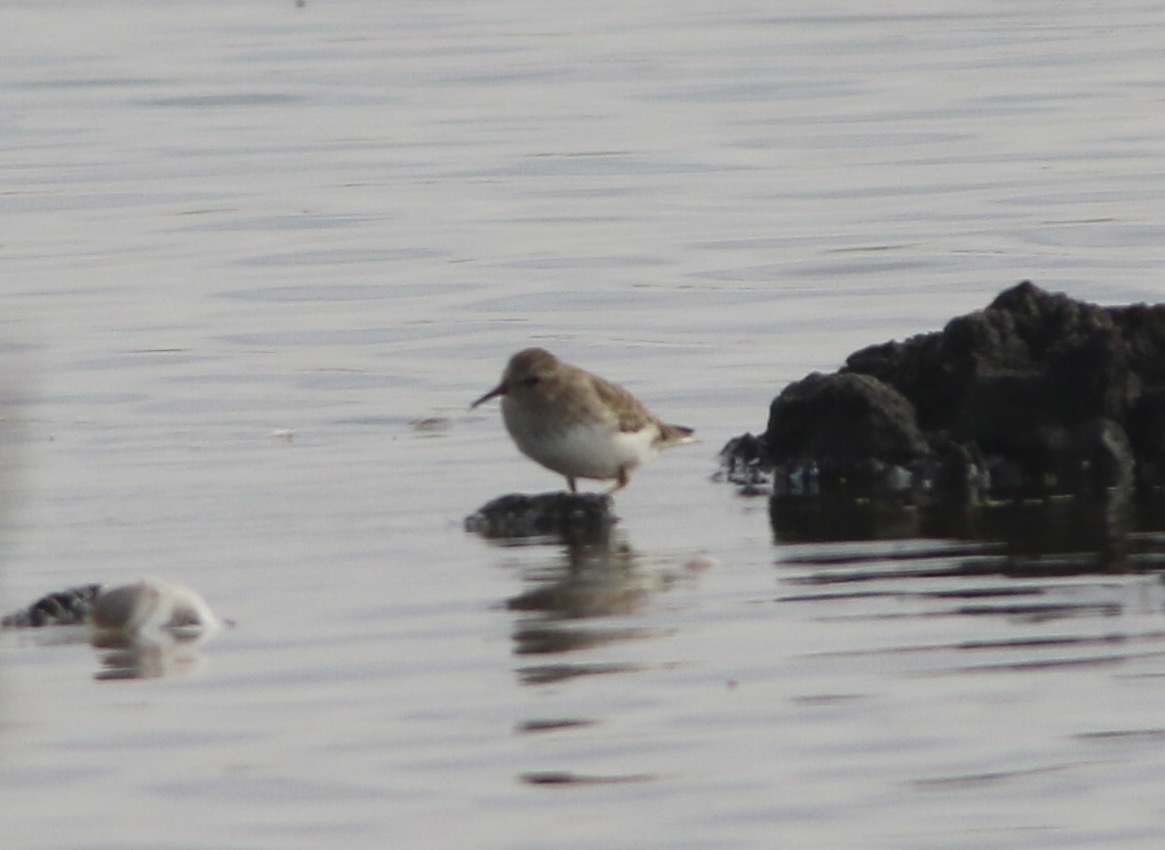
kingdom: Animalia
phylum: Chordata
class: Aves
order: Charadriiformes
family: Scolopacidae
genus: Calidris
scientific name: Calidris minutilla
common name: Least sandpiper
